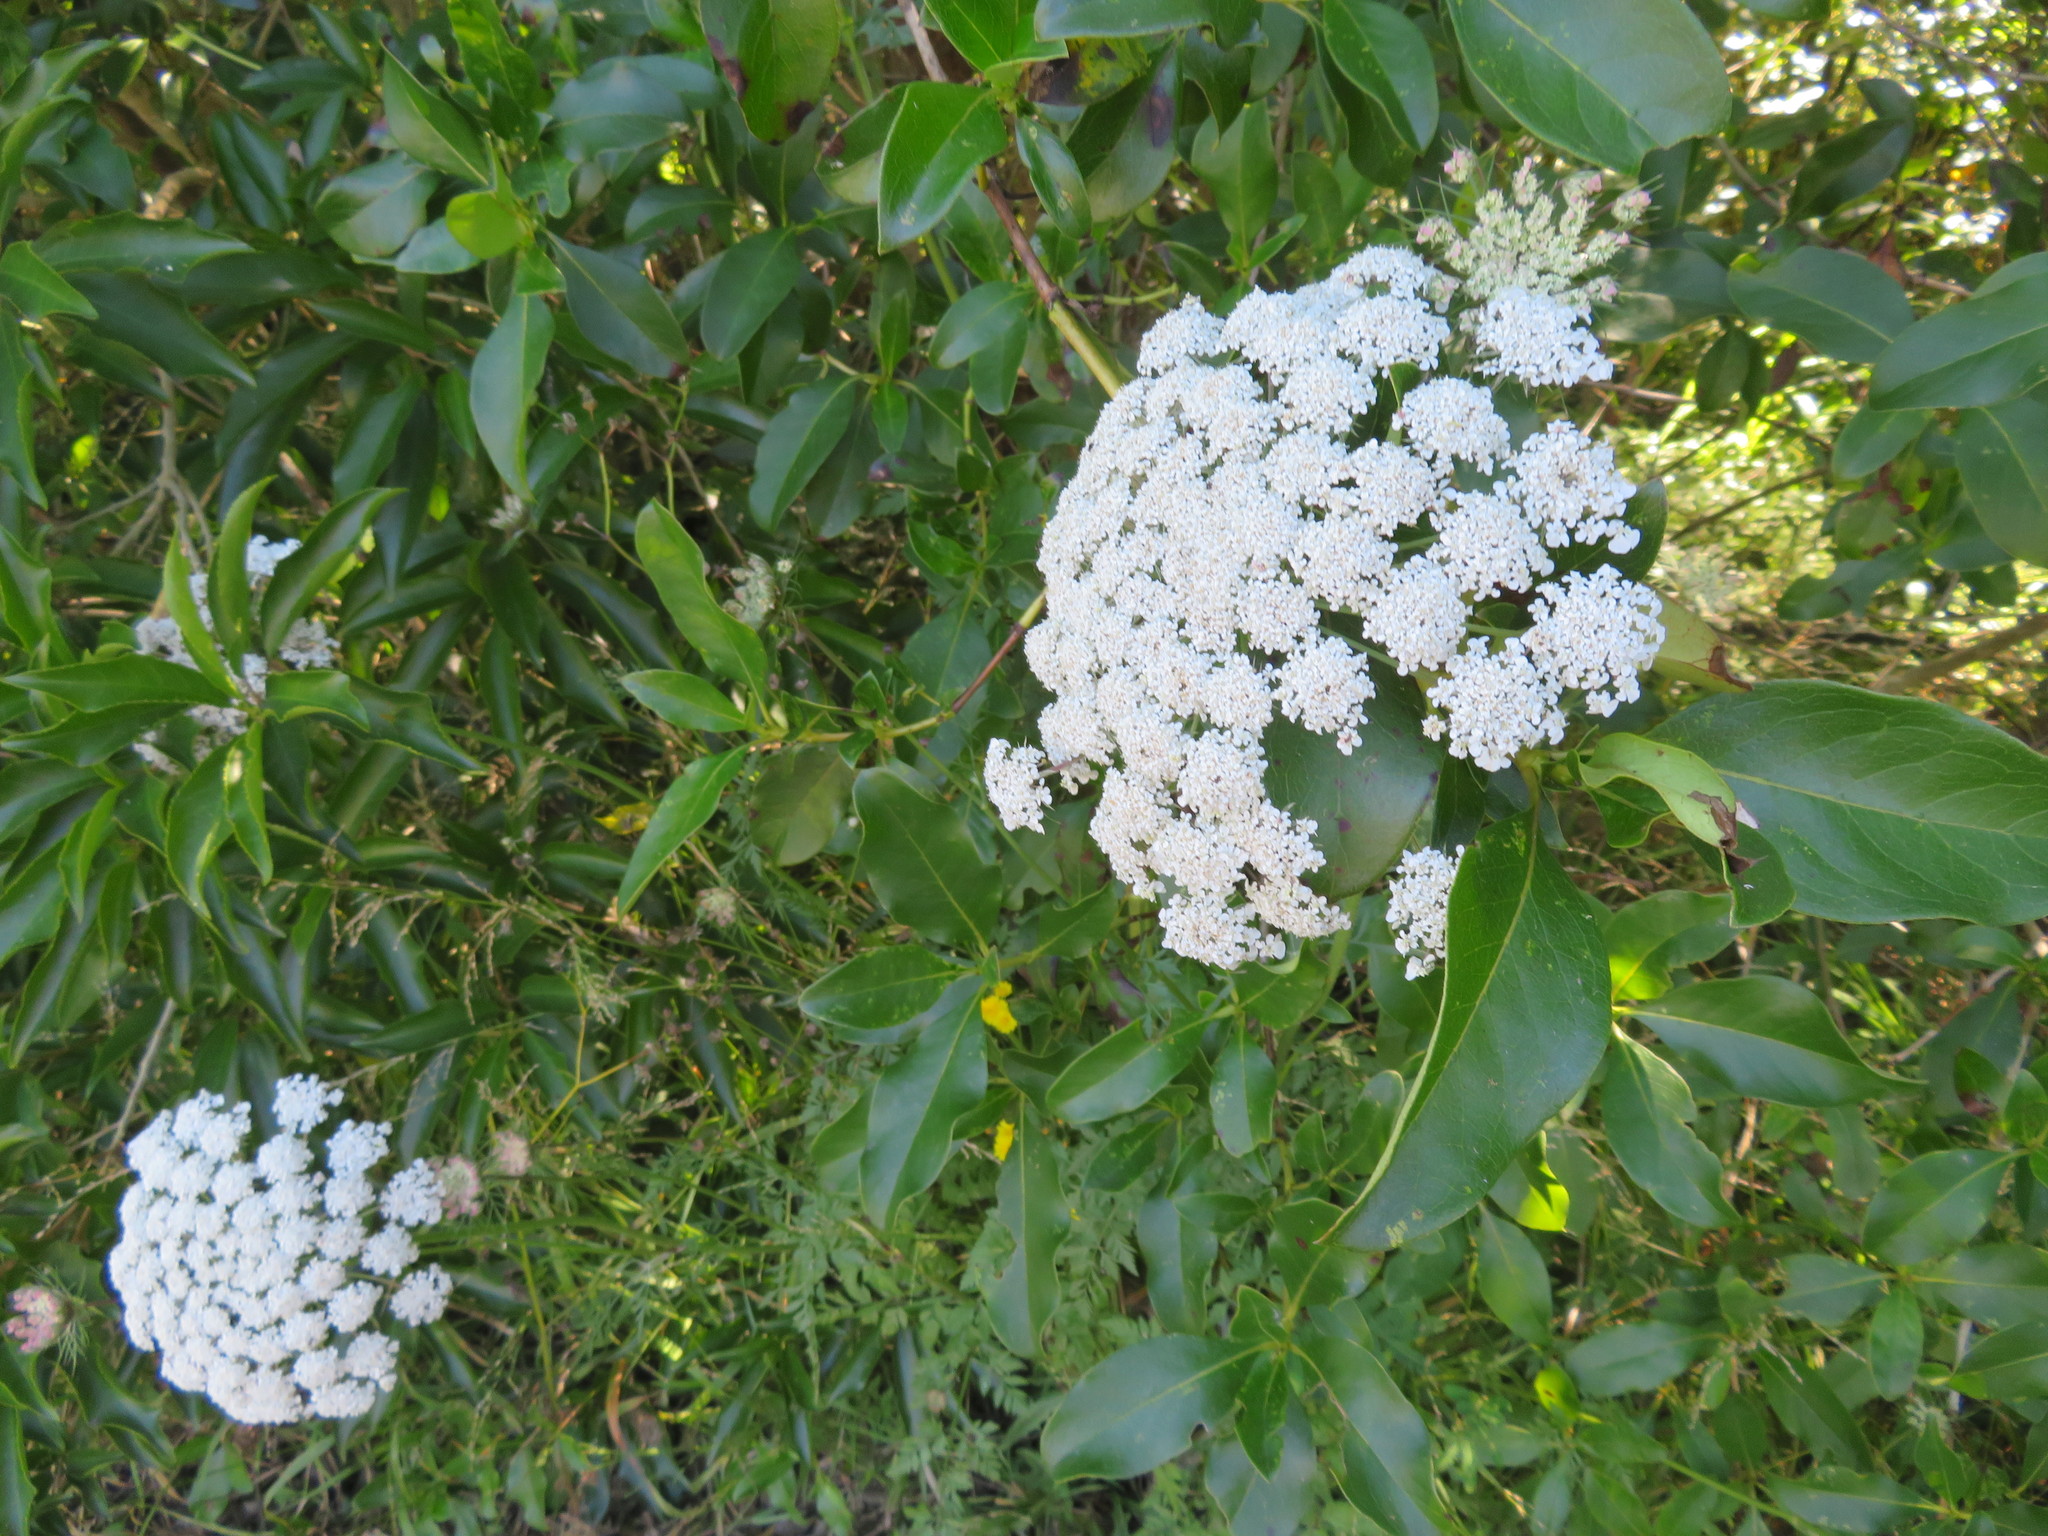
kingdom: Plantae
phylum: Tracheophyta
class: Magnoliopsida
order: Apiales
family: Apiaceae
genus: Daucus
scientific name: Daucus carota
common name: Wild carrot
